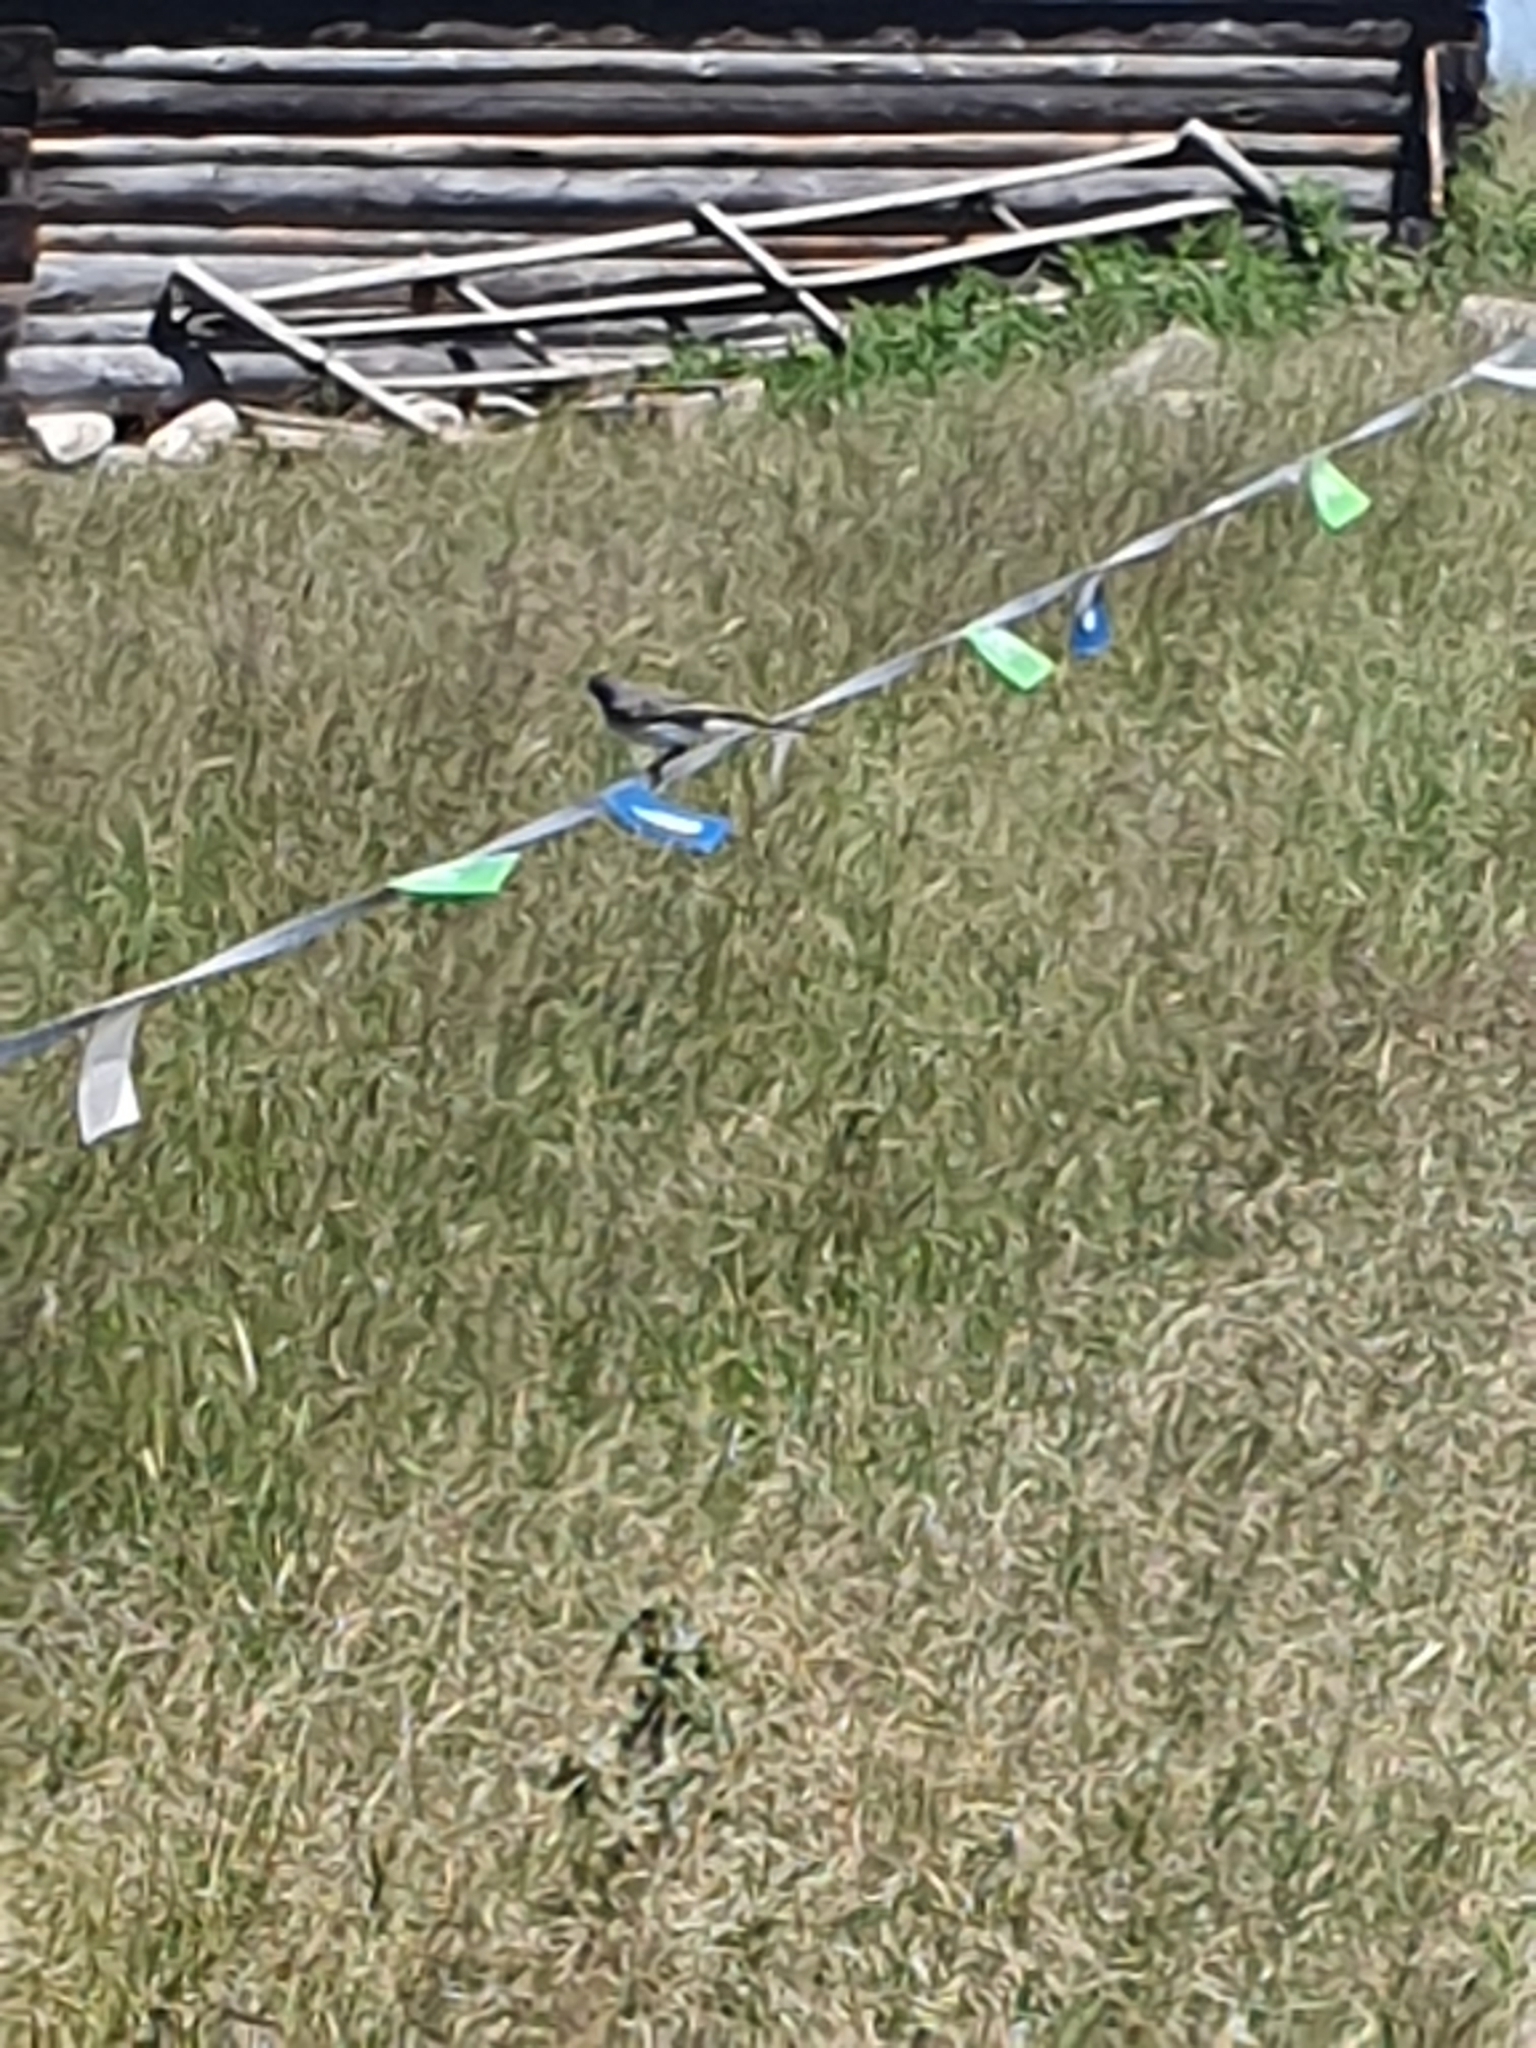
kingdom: Animalia
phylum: Chordata
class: Aves
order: Passeriformes
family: Motacillidae
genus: Motacilla
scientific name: Motacilla alba
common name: White wagtail
